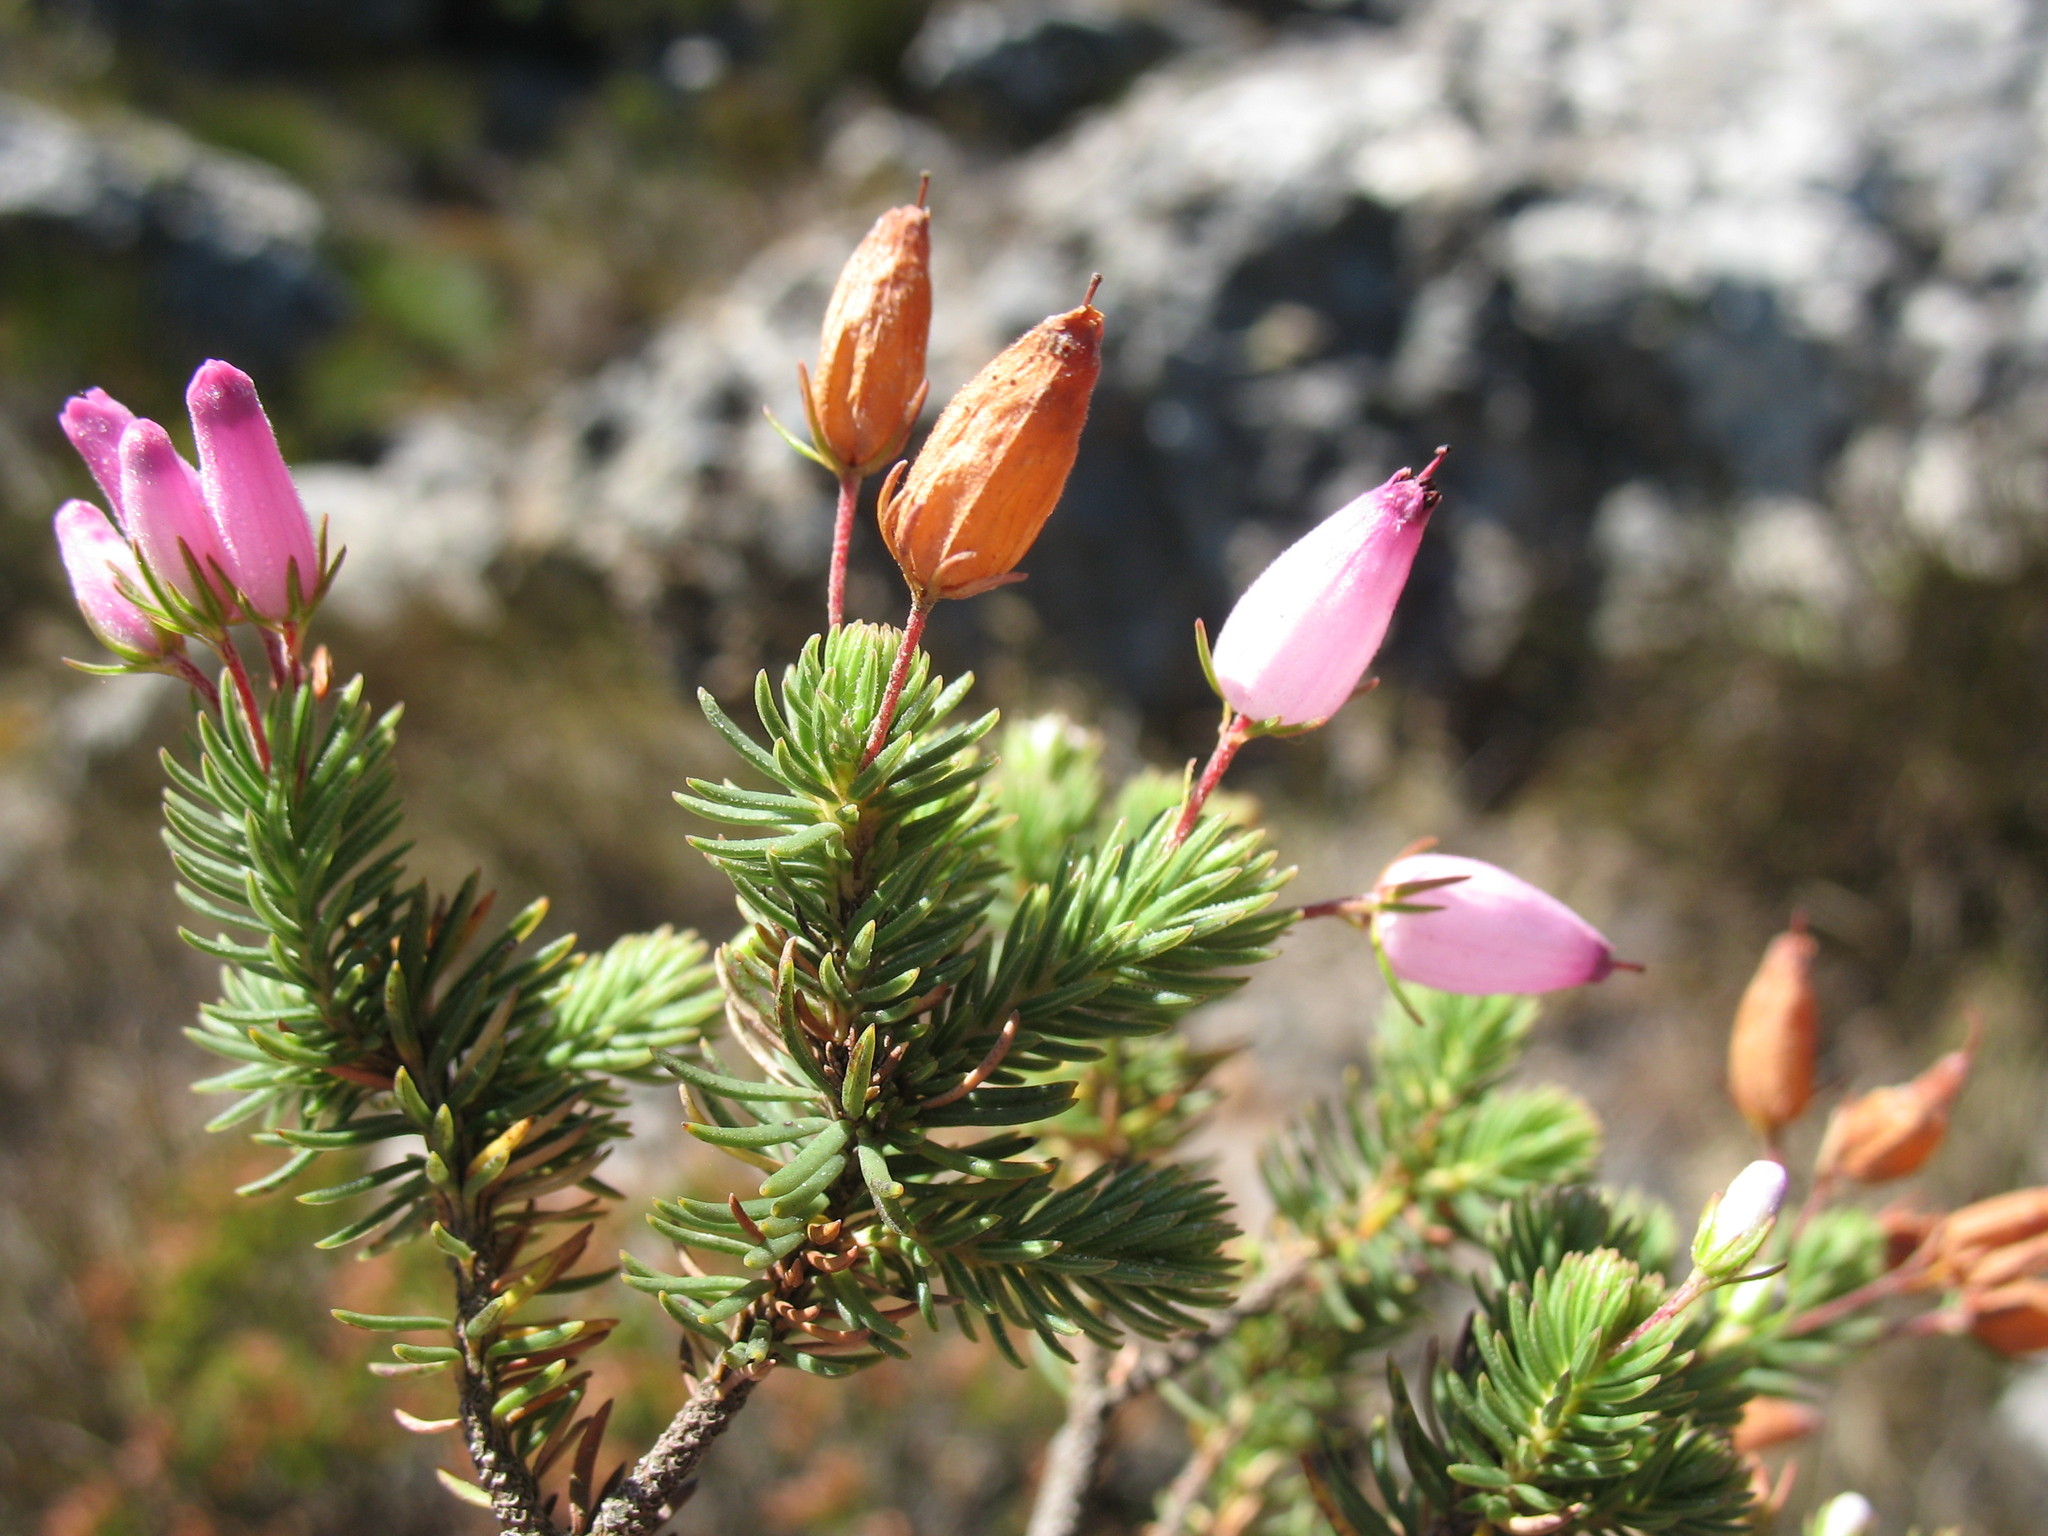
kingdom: Plantae
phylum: Tracheophyta
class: Magnoliopsida
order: Ericales
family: Ericaceae
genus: Erica
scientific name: Erica doliiformis
